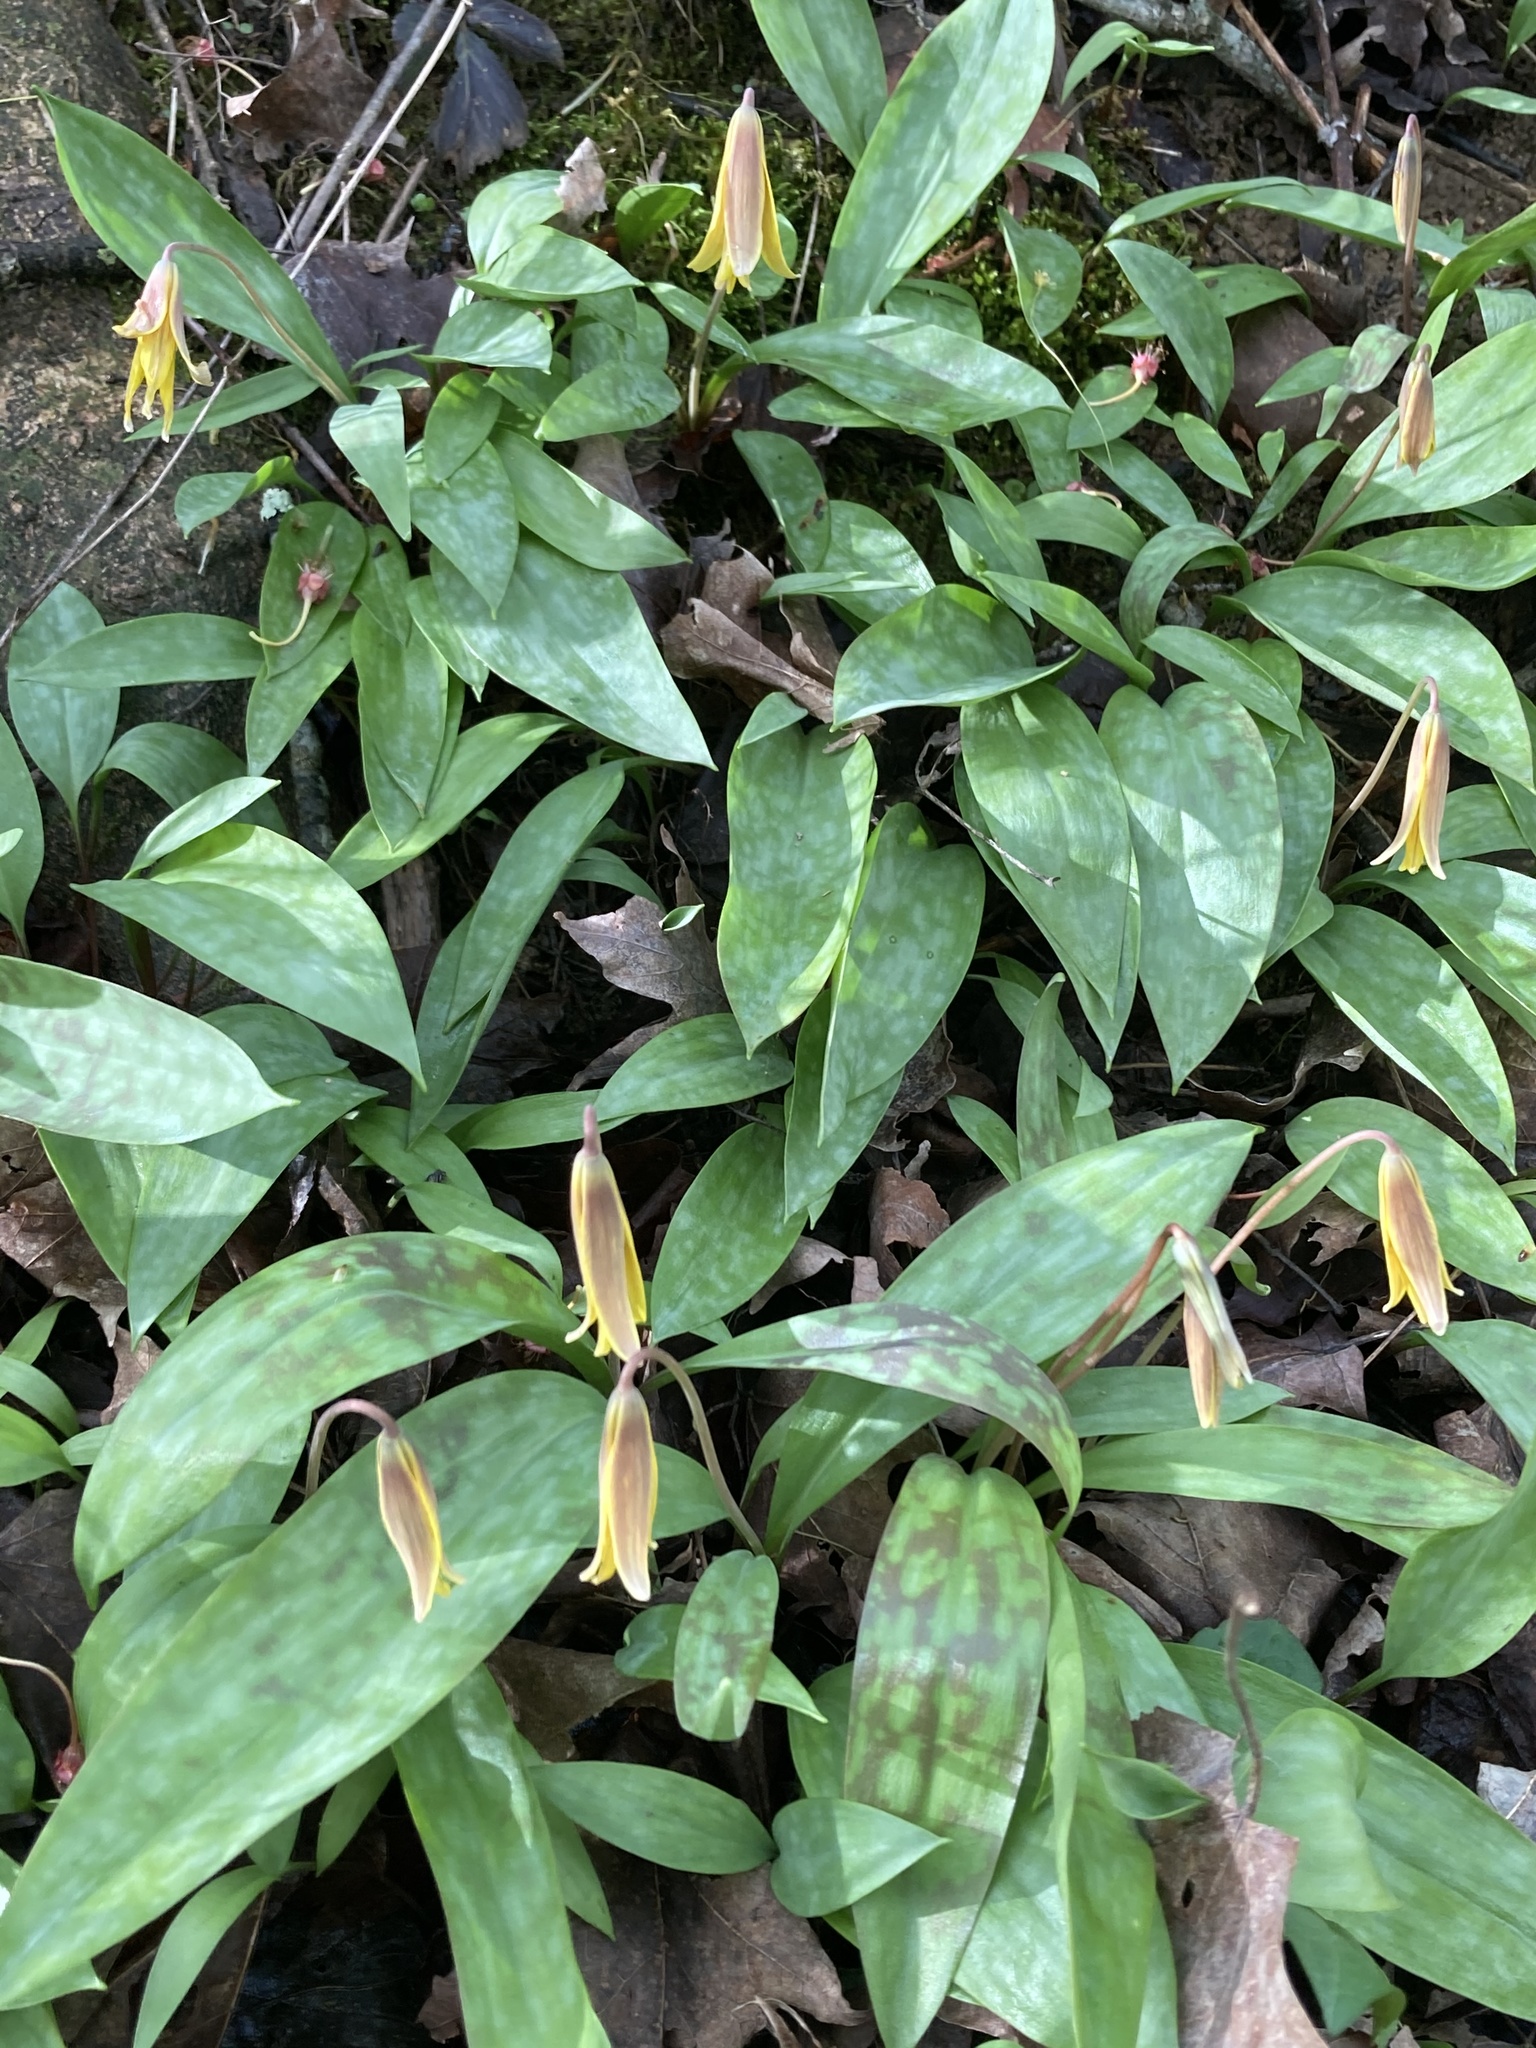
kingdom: Plantae
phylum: Tracheophyta
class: Liliopsida
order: Liliales
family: Liliaceae
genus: Erythronium
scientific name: Erythronium americanum
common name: Yellow adder's-tongue
